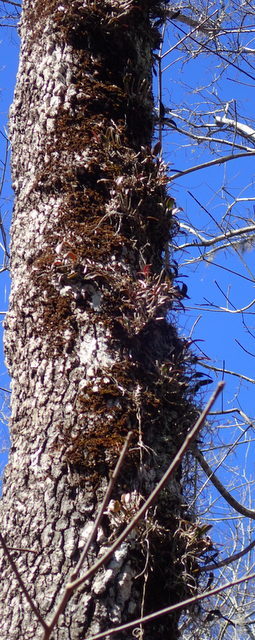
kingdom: Plantae
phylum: Tracheophyta
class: Liliopsida
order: Asparagales
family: Orchidaceae
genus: Epidendrum
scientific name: Epidendrum conopseum
